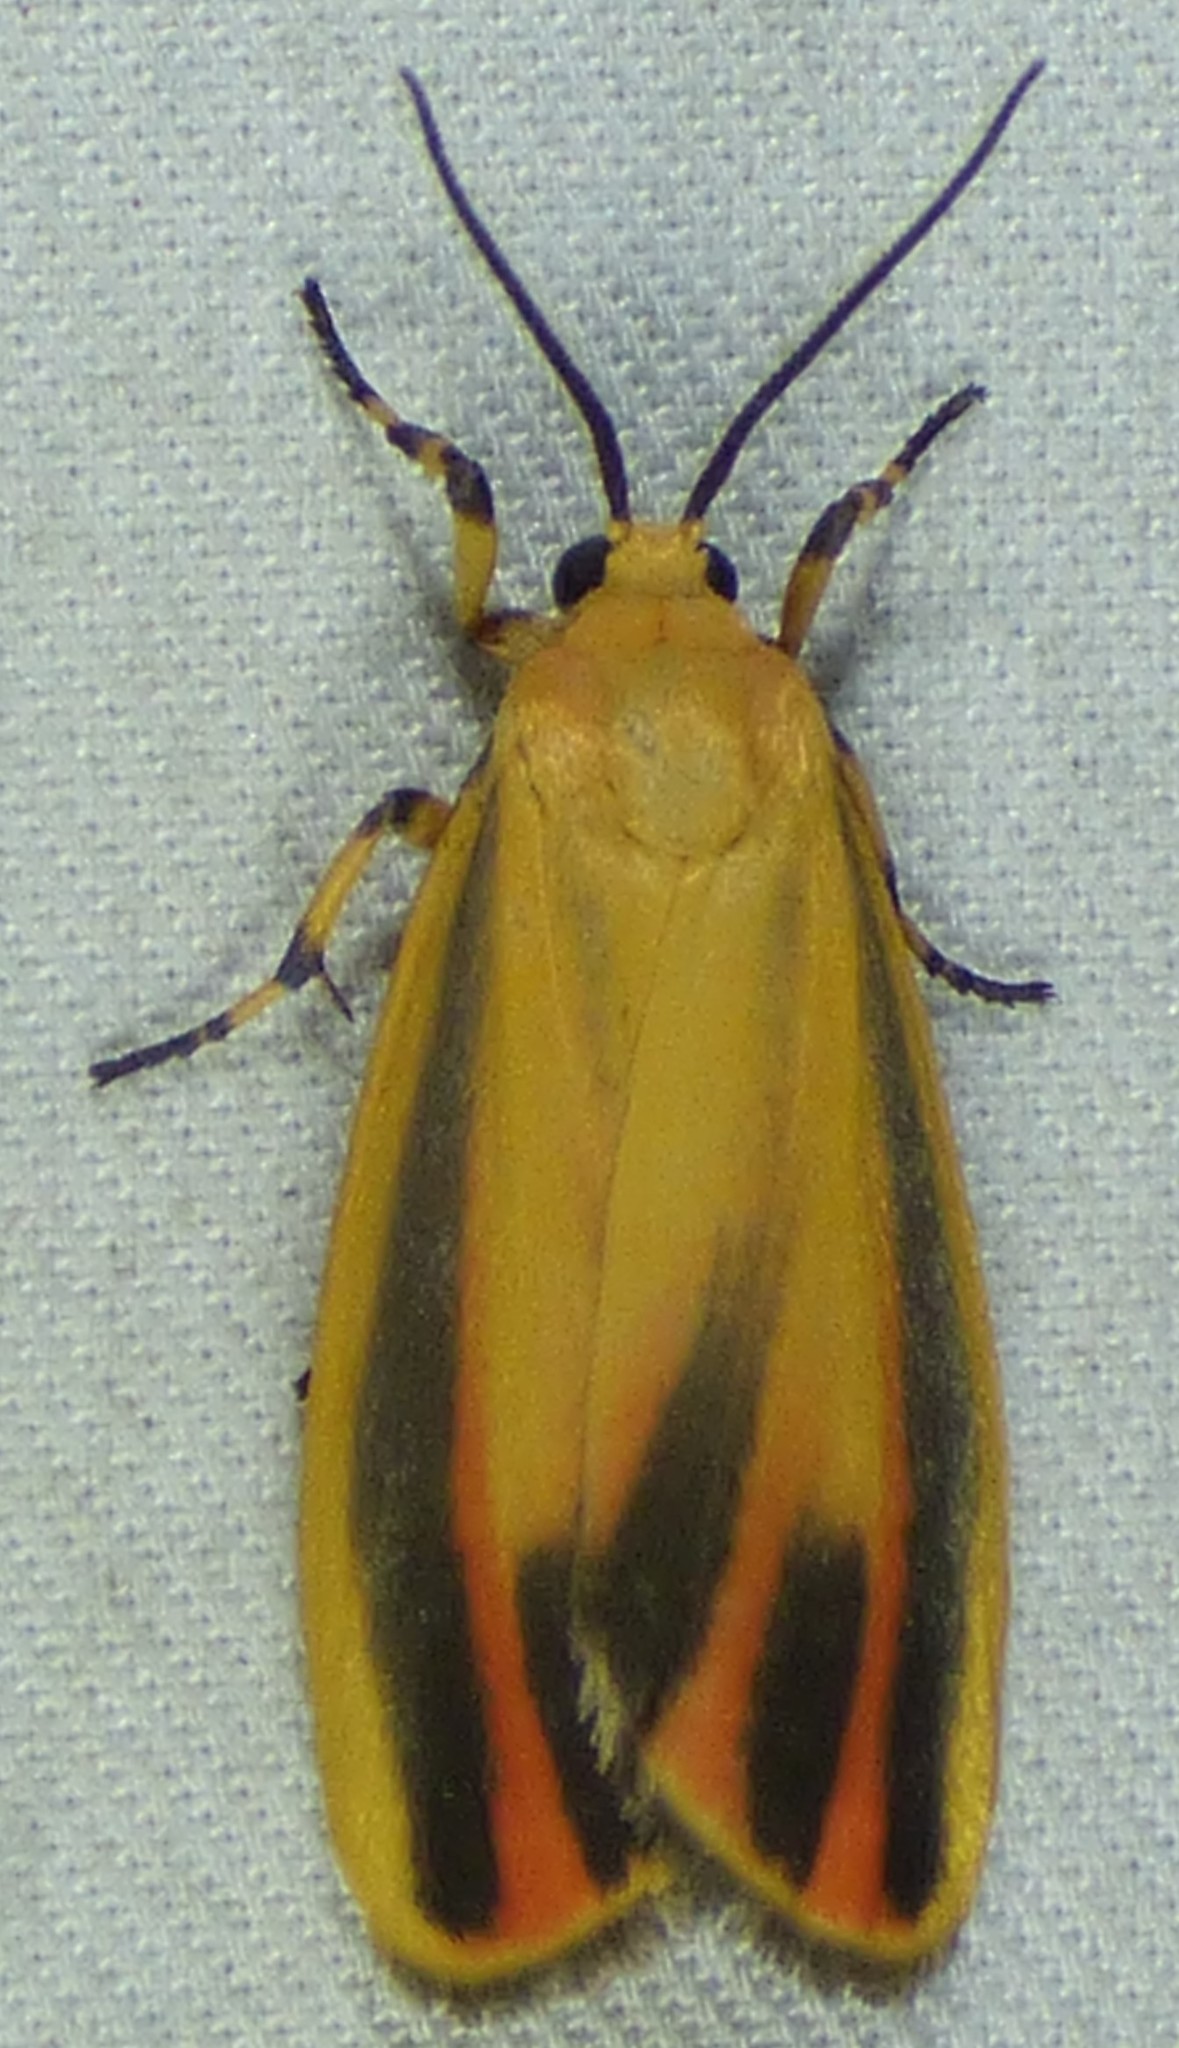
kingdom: Animalia
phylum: Arthropoda
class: Insecta
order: Lepidoptera
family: Erebidae
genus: Hypoprepia
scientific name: Hypoprepia fucosa
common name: Painted lichen moth
